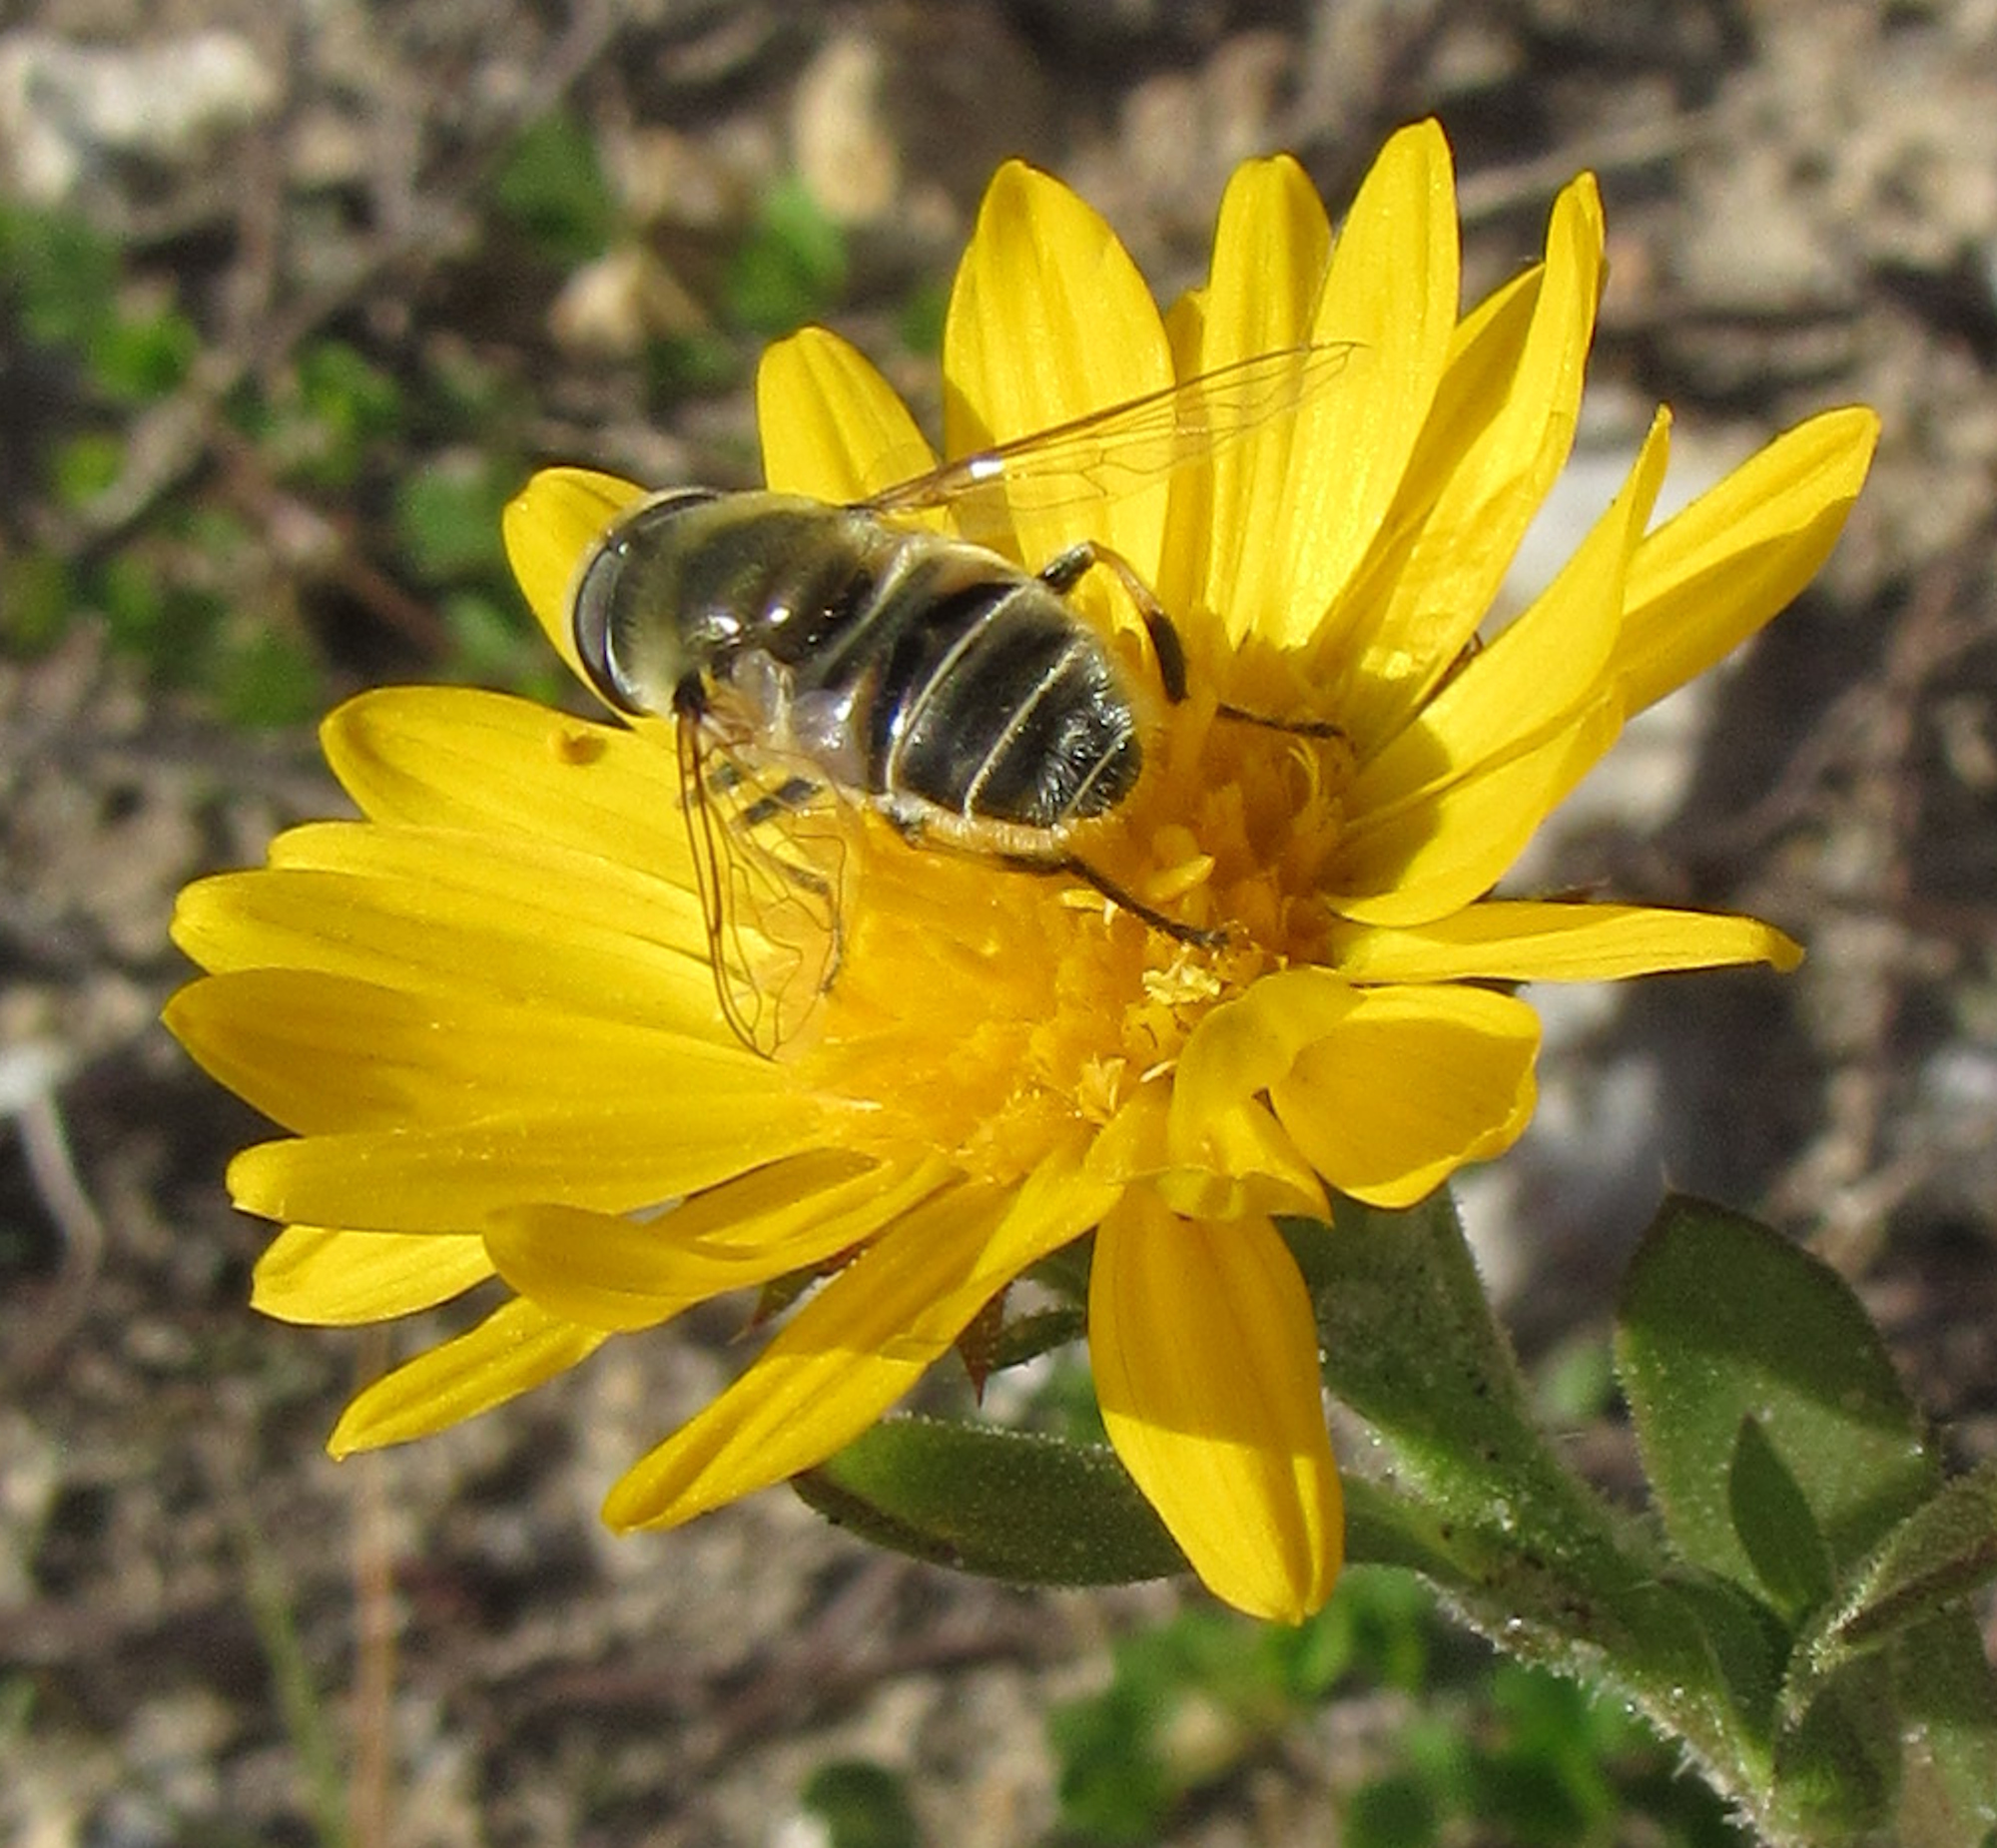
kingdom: Animalia
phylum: Arthropoda
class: Insecta
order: Diptera
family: Syrphidae
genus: Eristalis
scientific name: Eristalis stipator
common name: Yellow-shouldered drone fly
